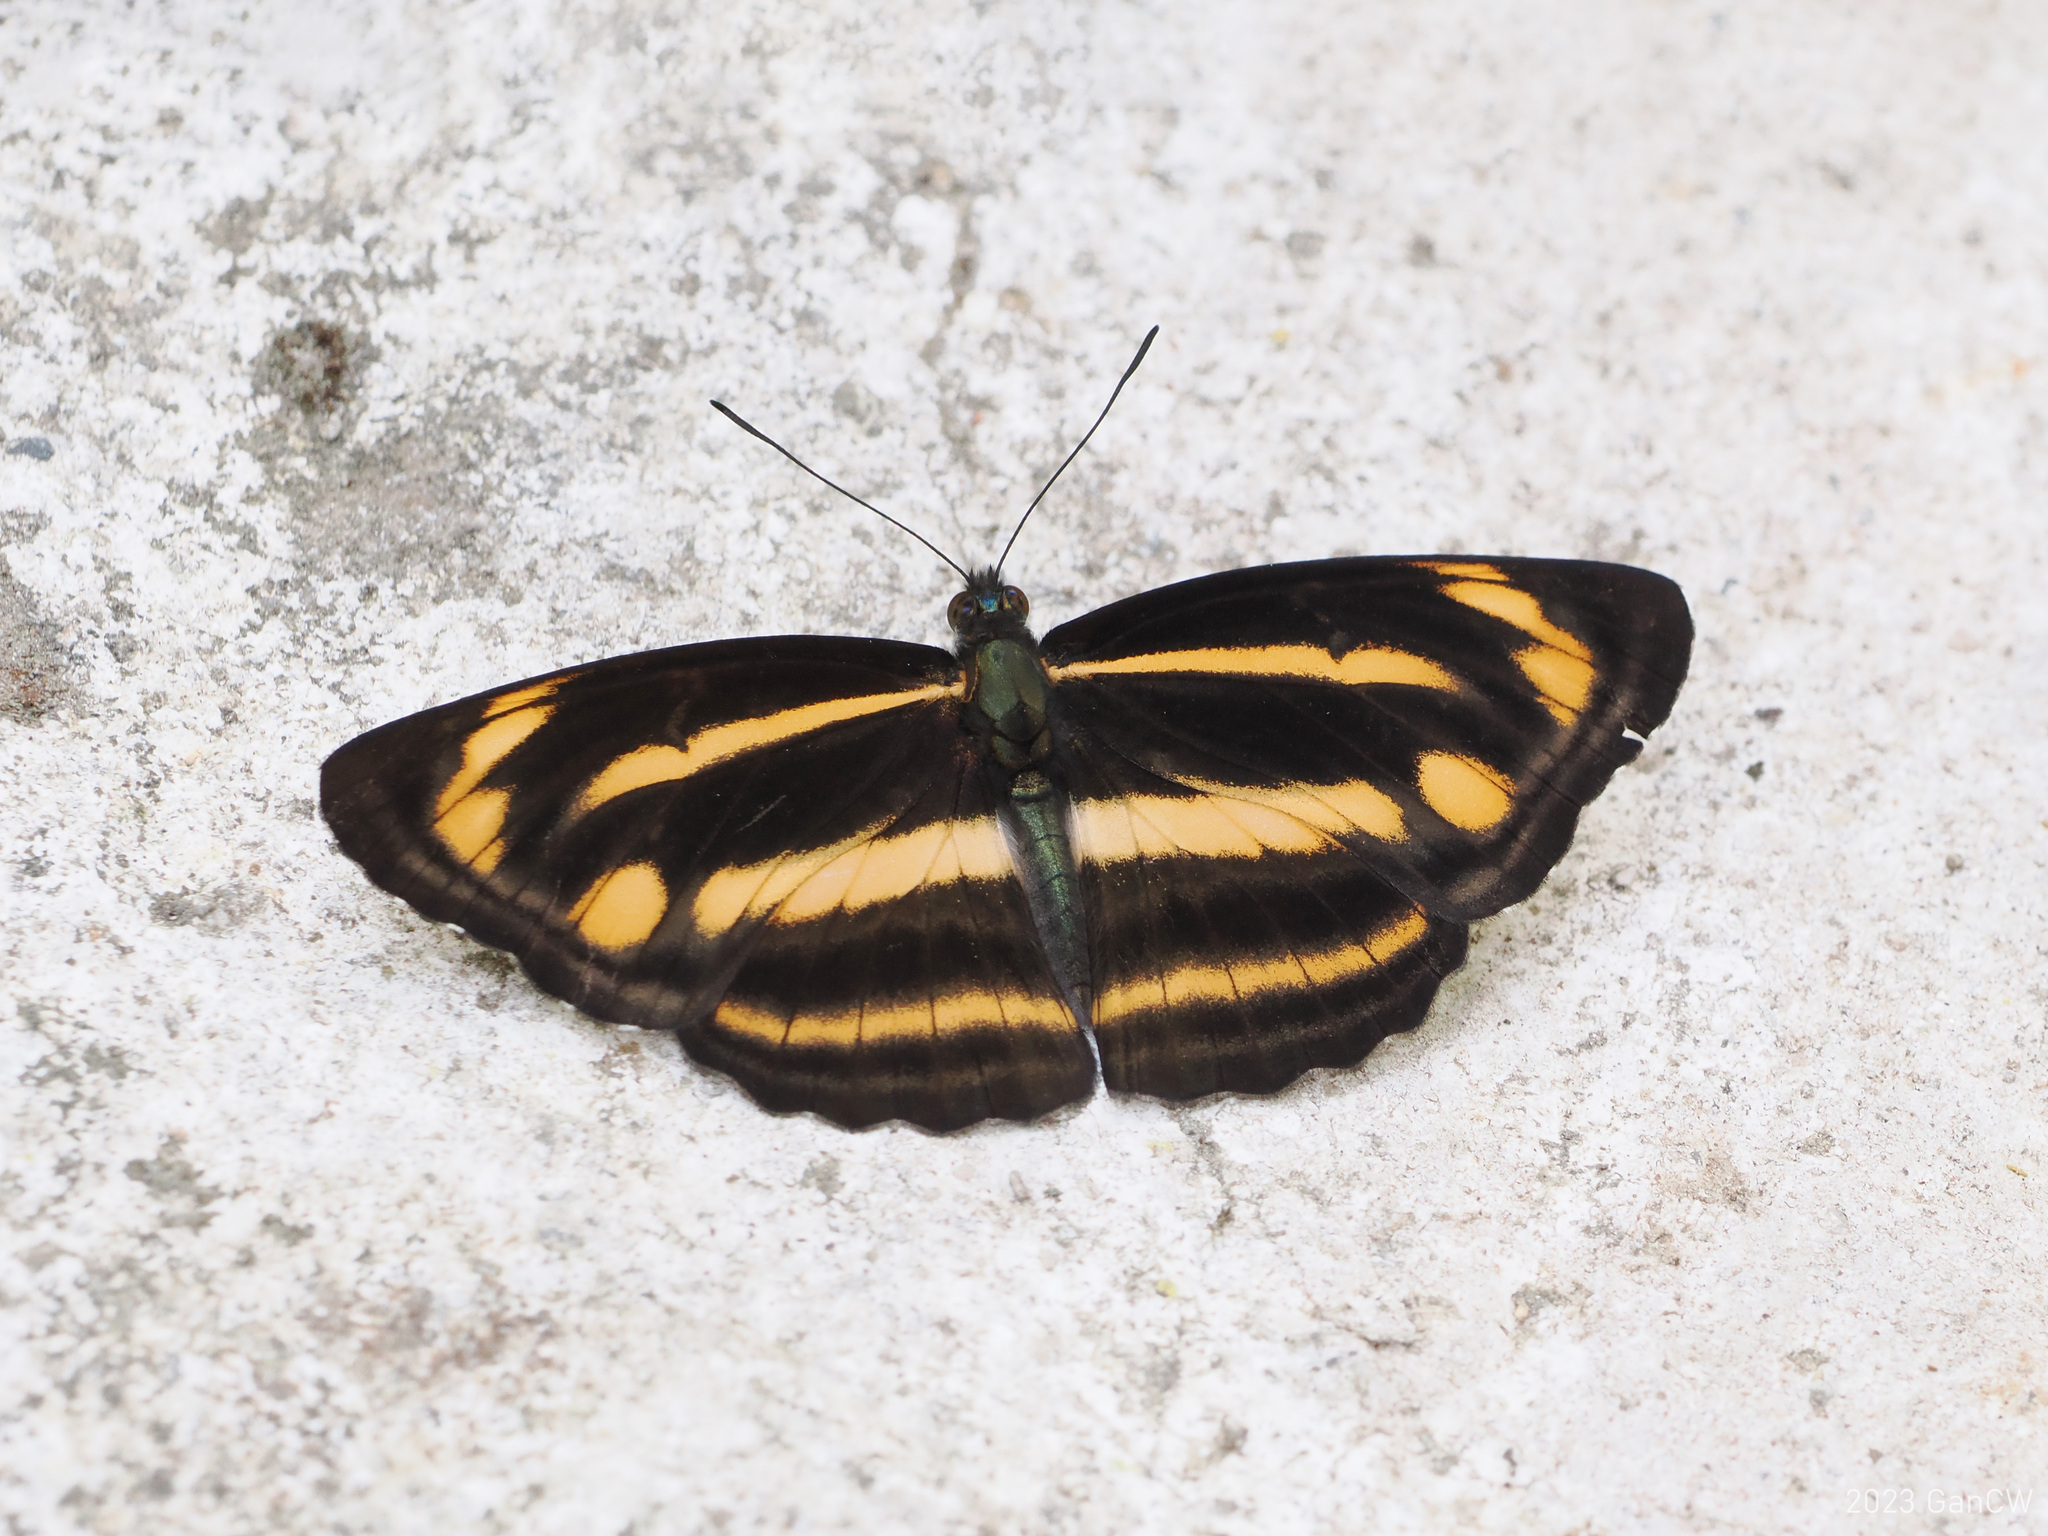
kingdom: Animalia
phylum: Arthropoda
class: Insecta
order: Lepidoptera
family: Nymphalidae
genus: Neptis
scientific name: Neptis ananta
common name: Yellow sailer
